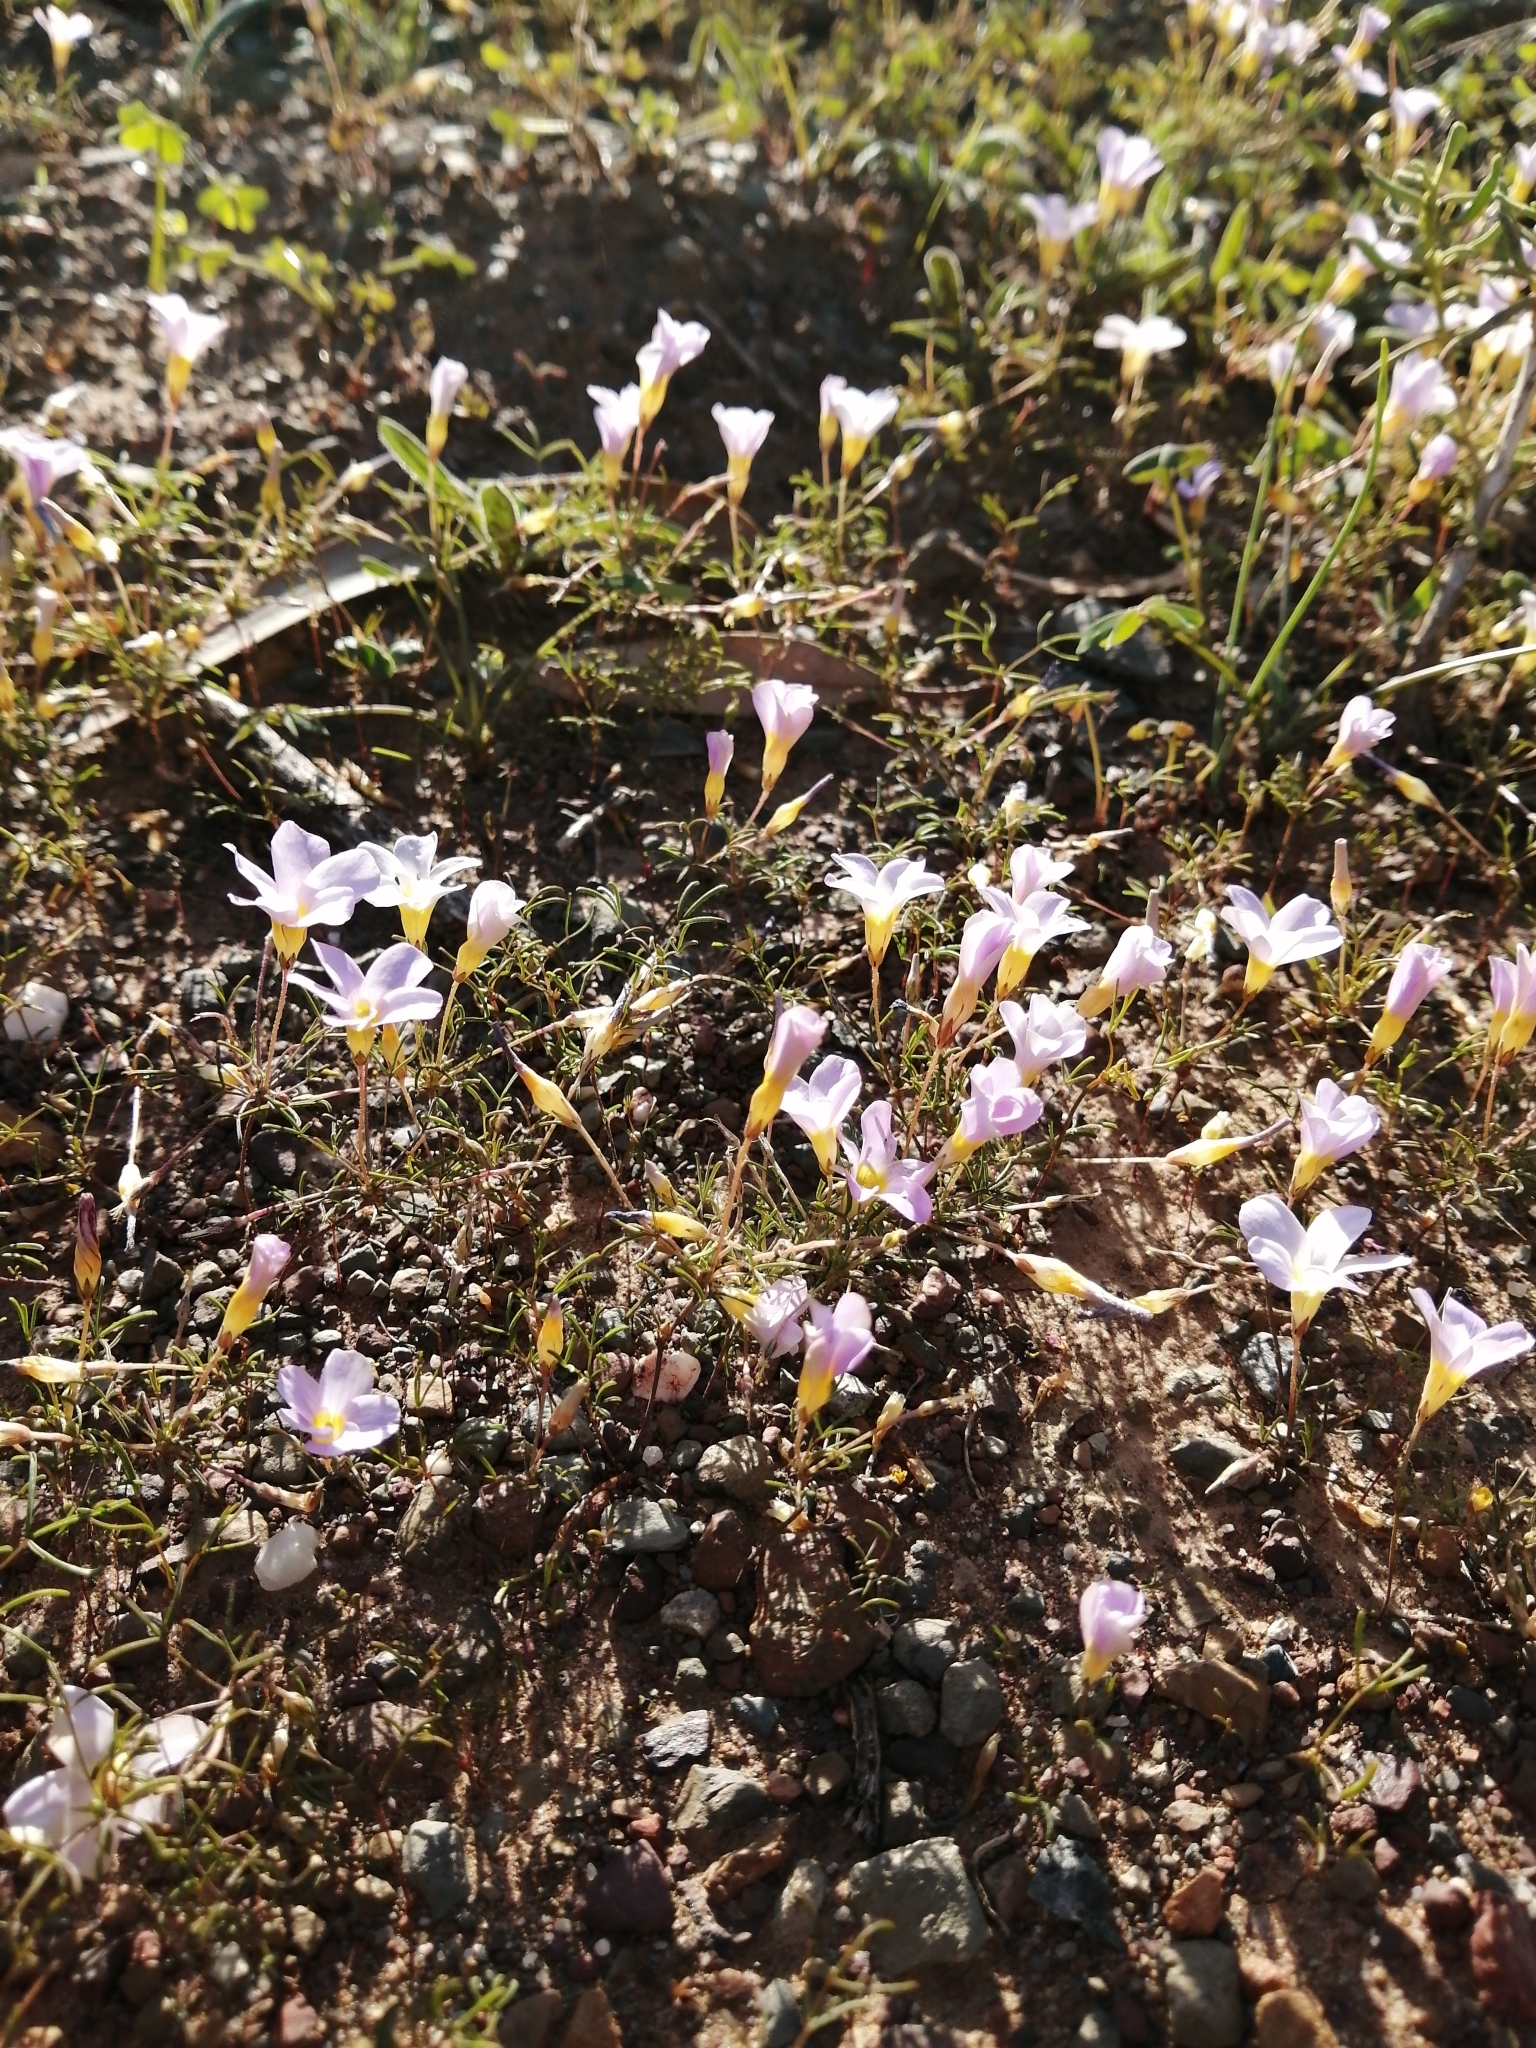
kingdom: Plantae
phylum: Tracheophyta
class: Magnoliopsida
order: Oxalidales
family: Oxalidaceae
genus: Oxalis
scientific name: Oxalis burkei
